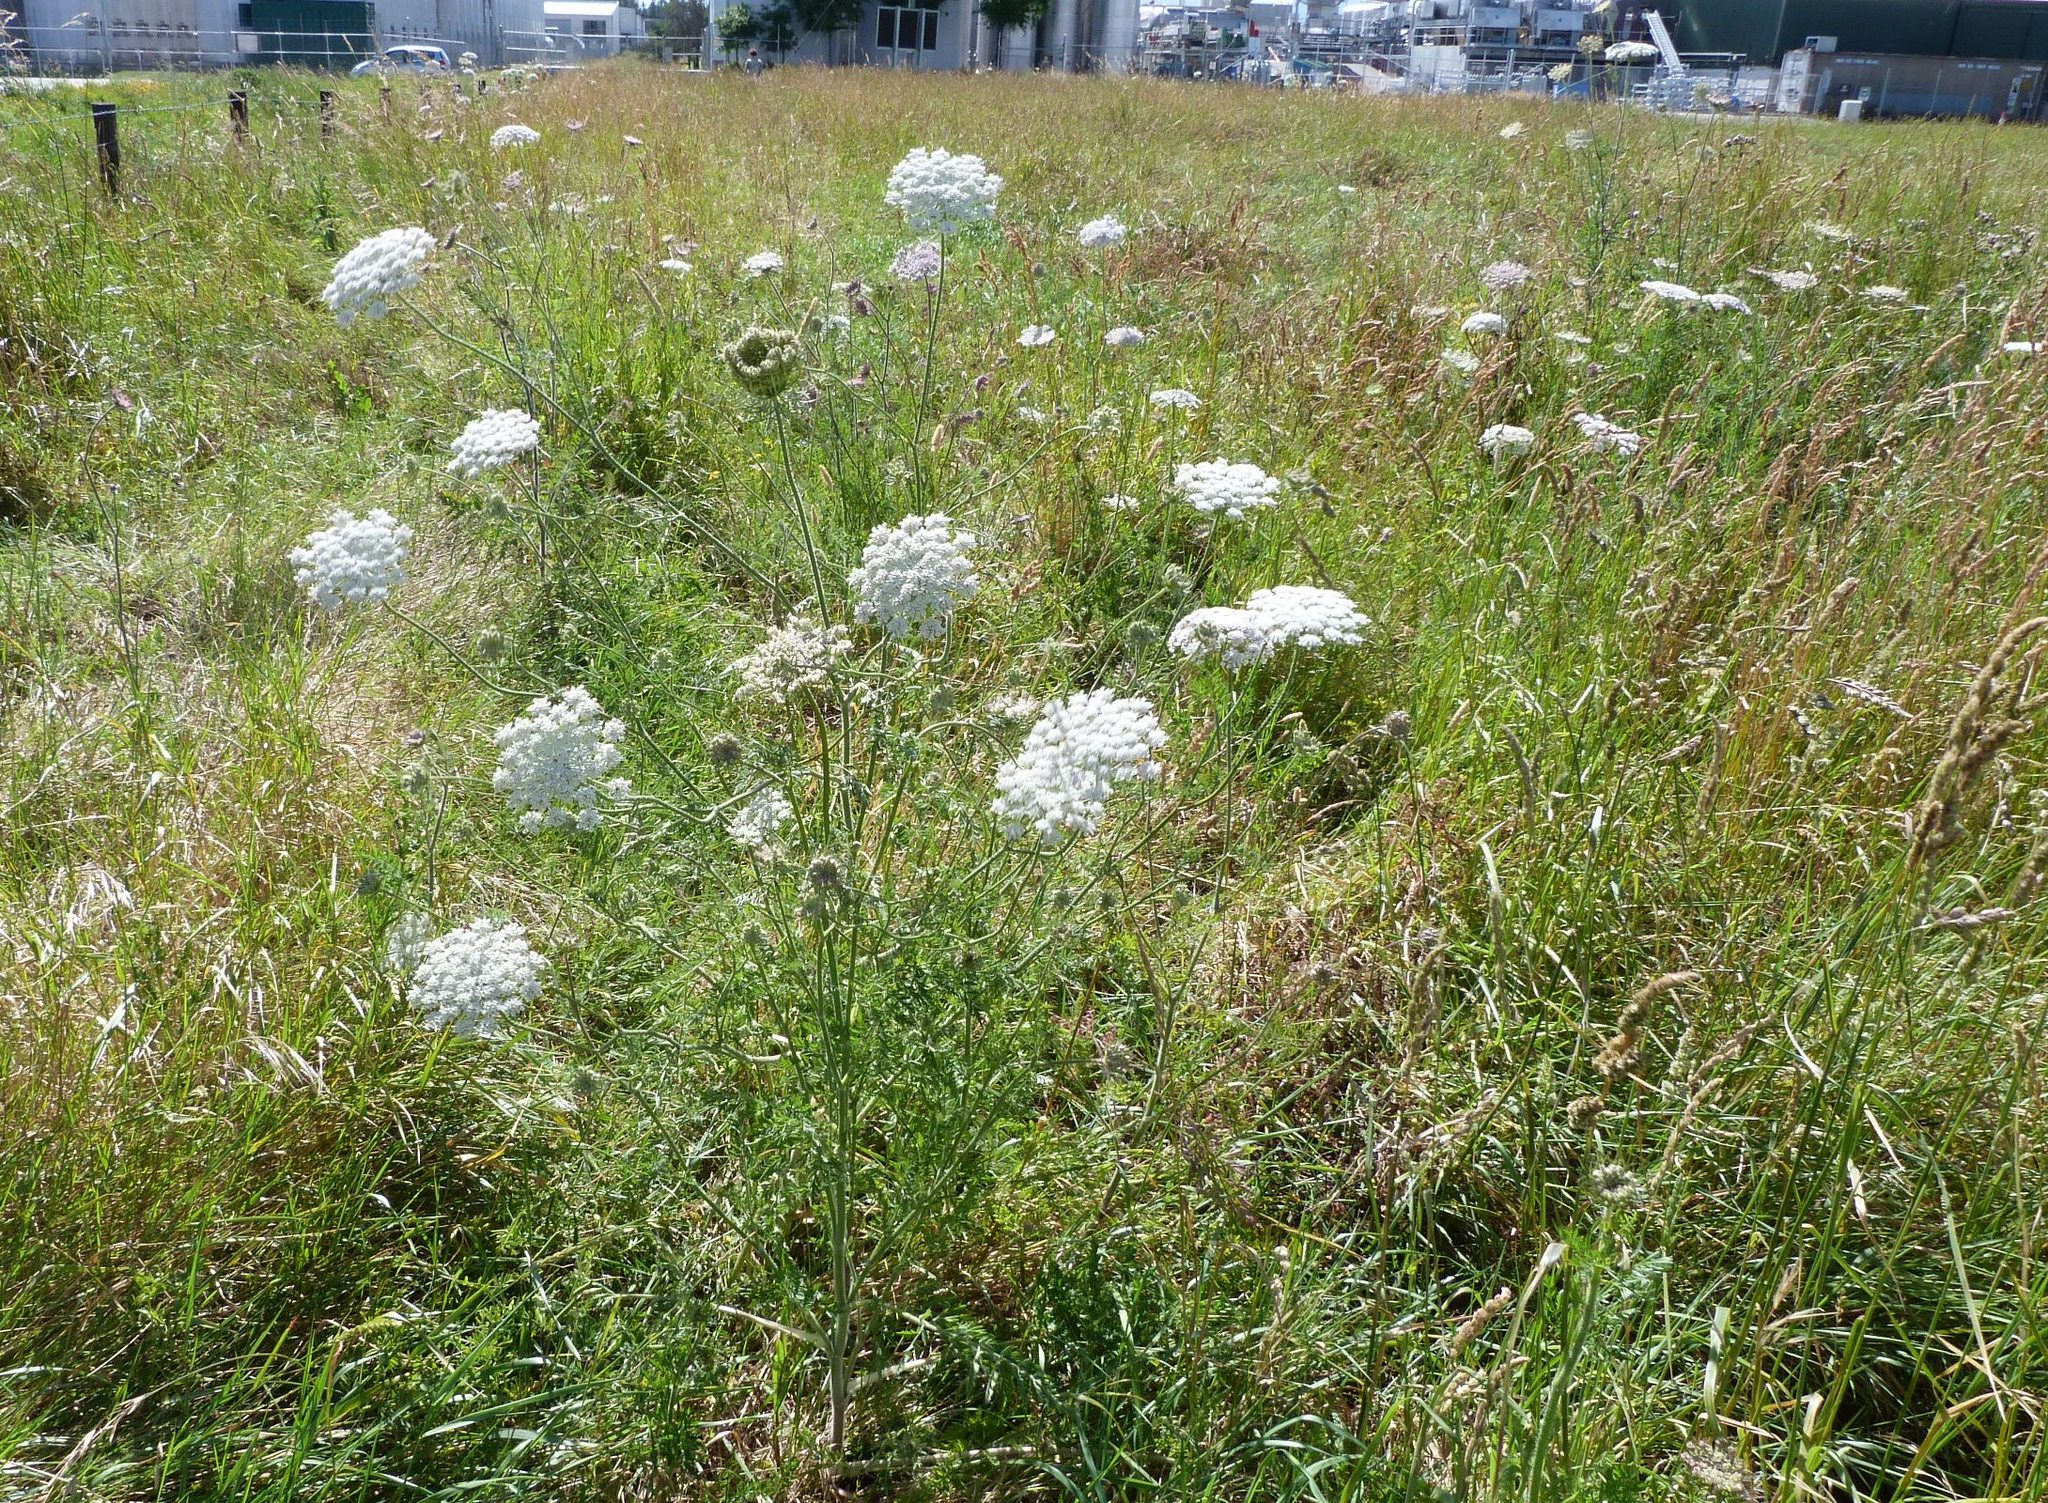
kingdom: Plantae
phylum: Tracheophyta
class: Magnoliopsida
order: Apiales
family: Apiaceae
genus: Daucus
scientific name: Daucus carota
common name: Wild carrot
